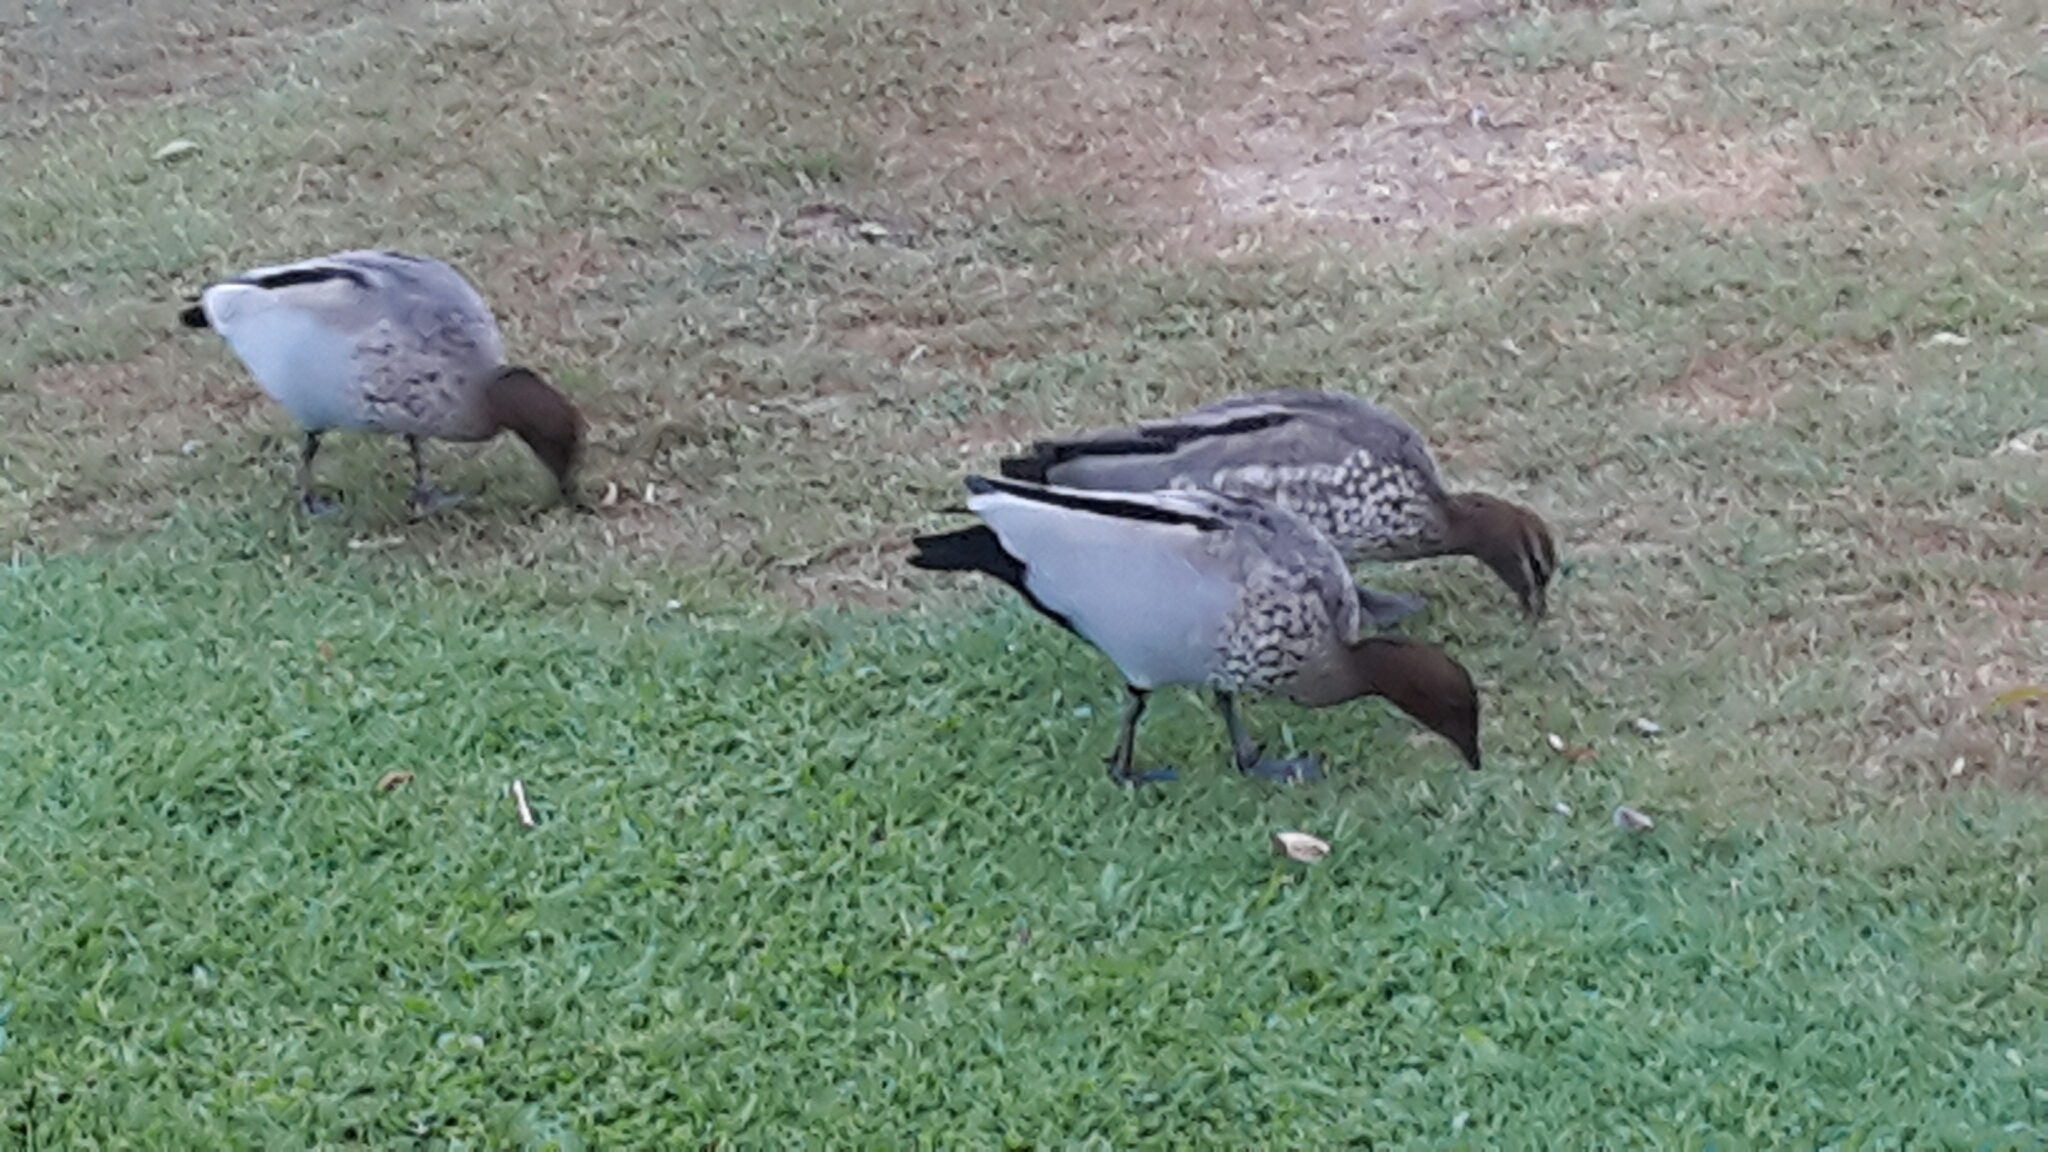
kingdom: Animalia
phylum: Chordata
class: Aves
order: Anseriformes
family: Anatidae
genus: Chenonetta
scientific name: Chenonetta jubata
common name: Maned duck
